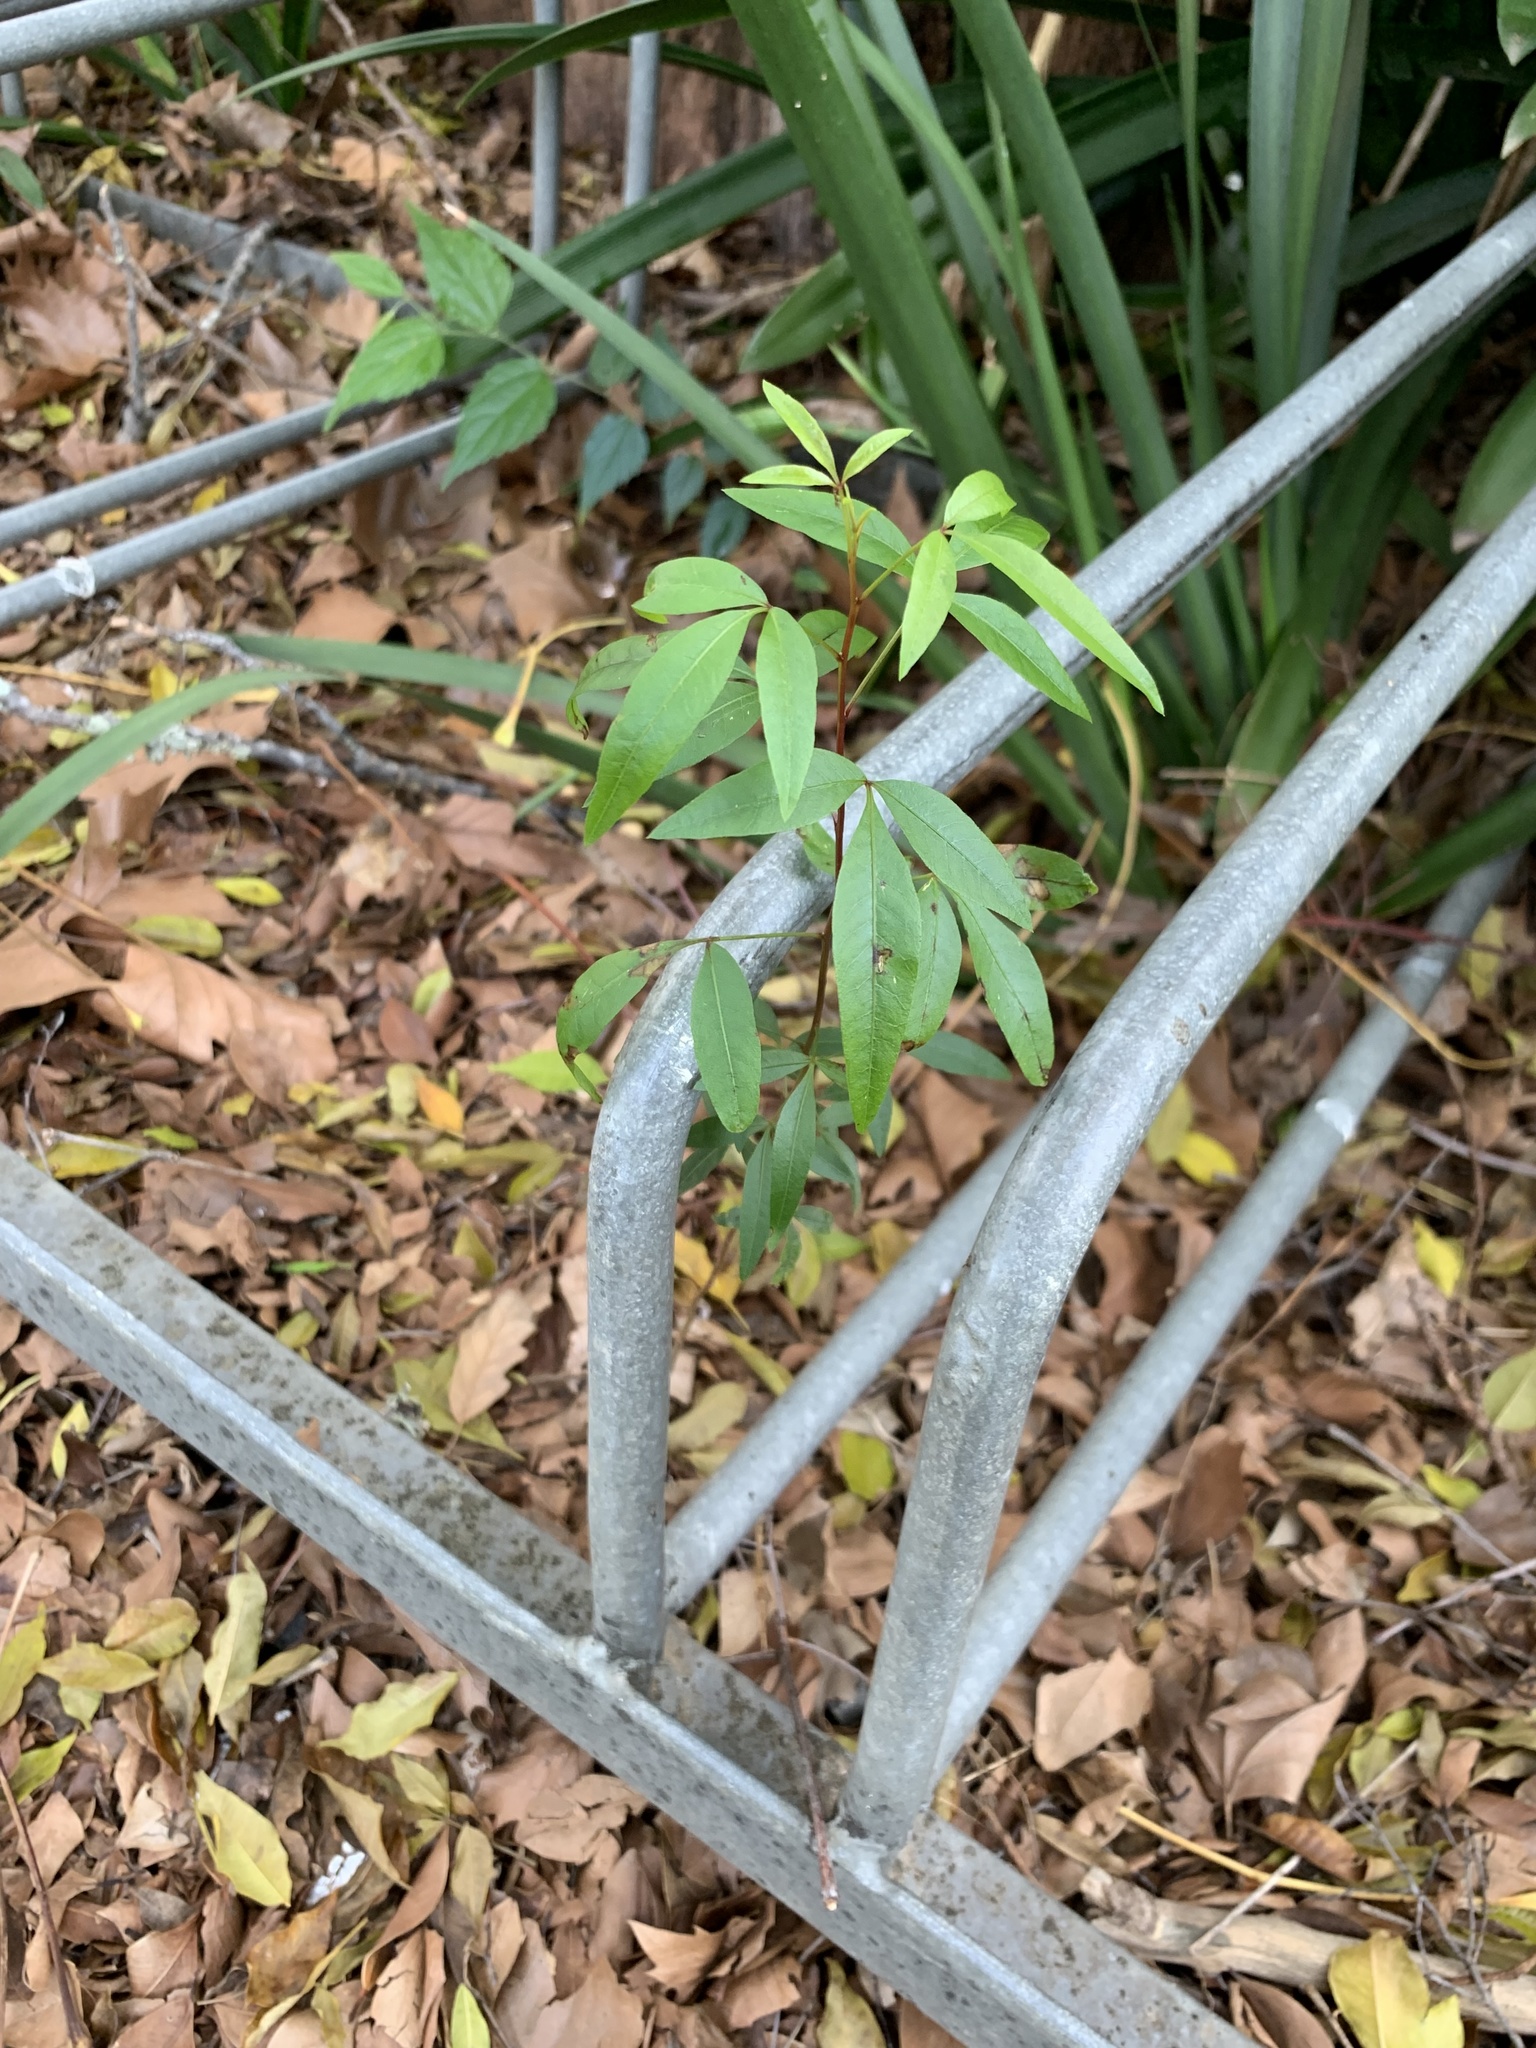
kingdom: Plantae
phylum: Tracheophyta
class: Magnoliopsida
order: Sapindales
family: Anacardiaceae
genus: Searsia
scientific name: Searsia pendulina
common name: White karee
